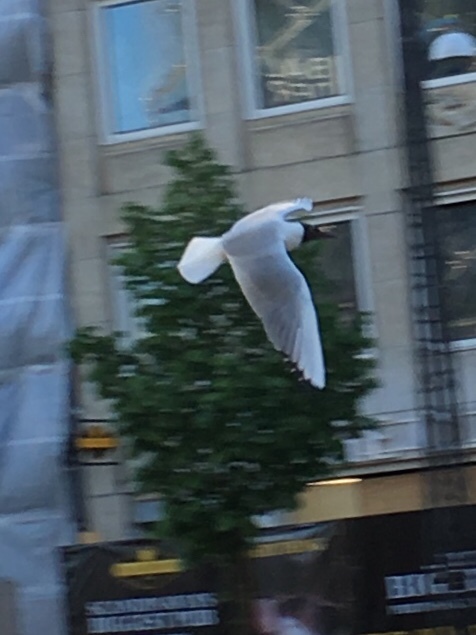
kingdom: Animalia
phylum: Chordata
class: Aves
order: Charadriiformes
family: Laridae
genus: Chroicocephalus
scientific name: Chroicocephalus ridibundus
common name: Black-headed gull
